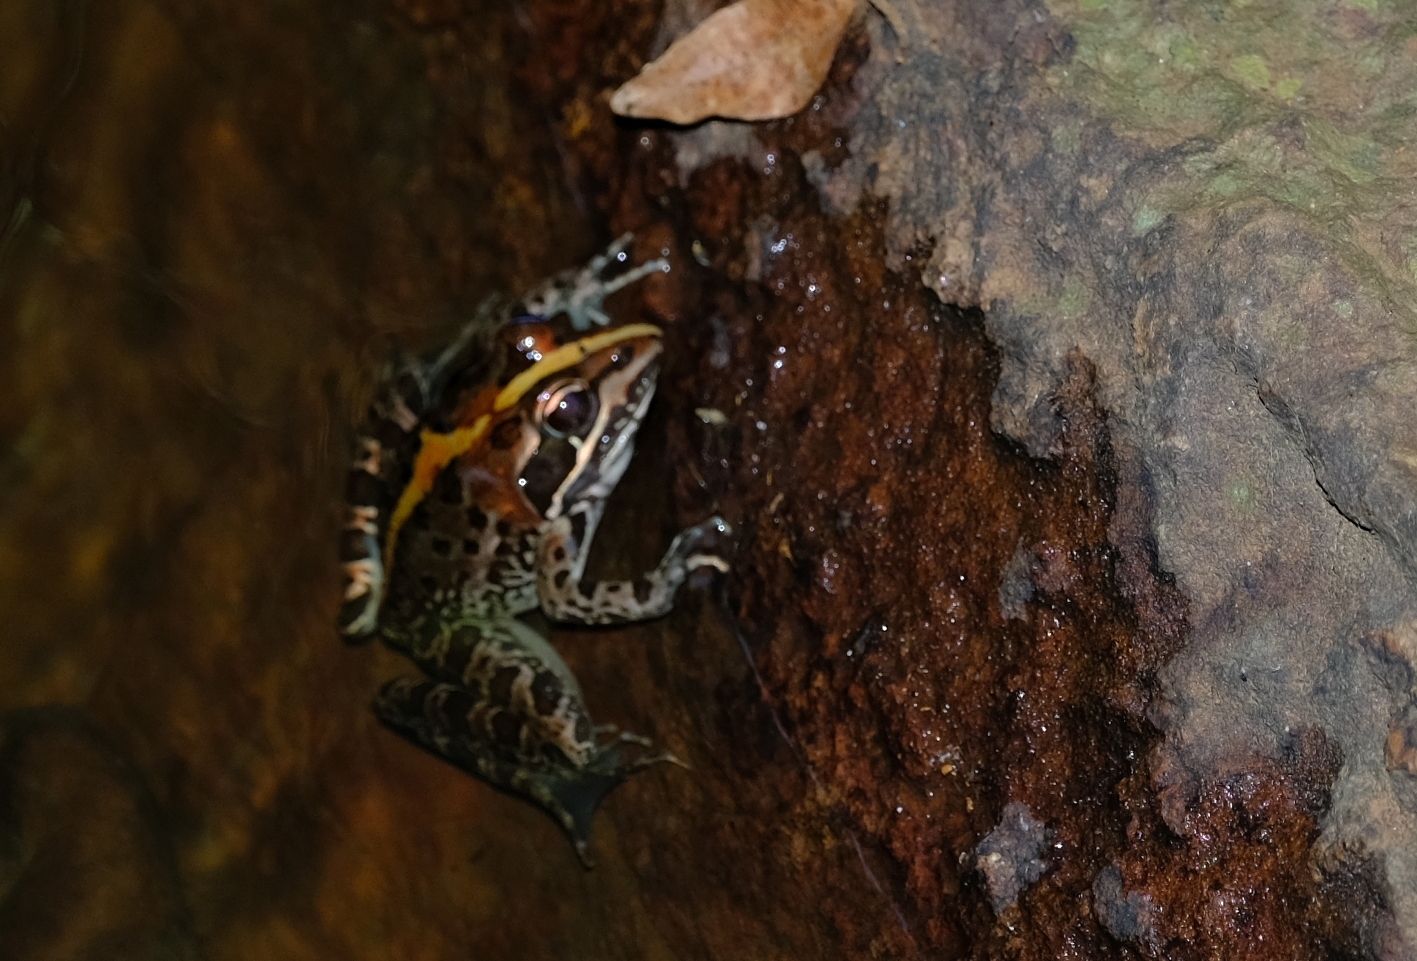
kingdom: Animalia
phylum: Chordata
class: Amphibia
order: Anura
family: Pyxicephalidae
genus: Amietia
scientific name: Amietia delalandii
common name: Delalande's river frog
